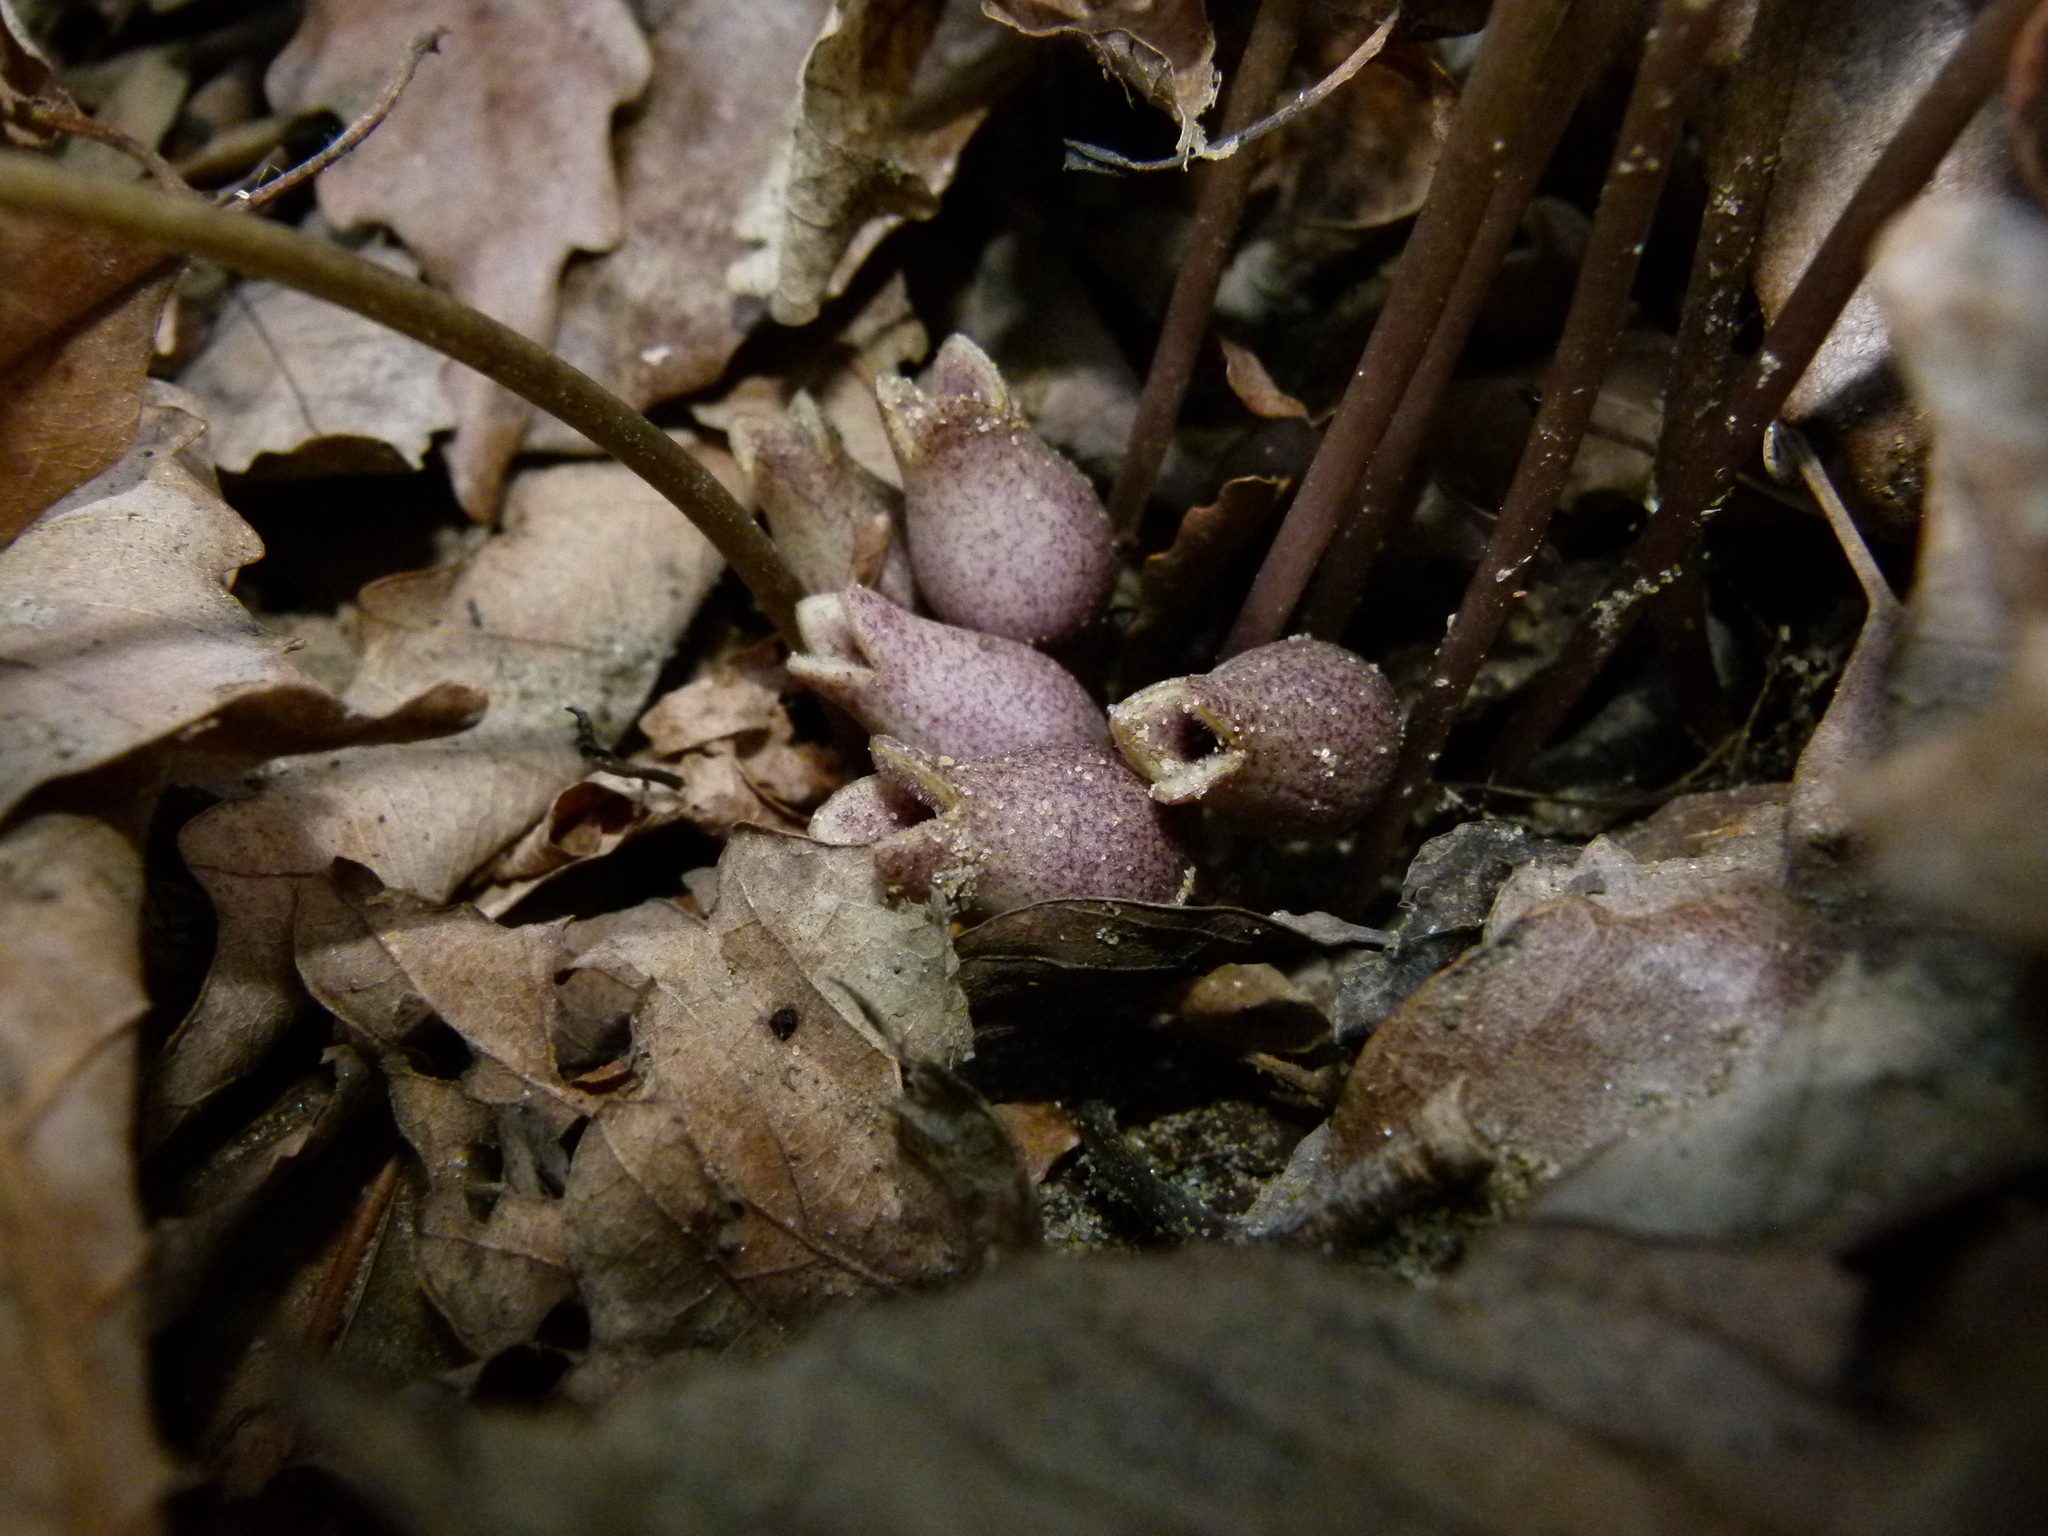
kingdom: Plantae
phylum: Tracheophyta
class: Magnoliopsida
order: Piperales
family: Aristolochiaceae
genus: Hexastylis
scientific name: Hexastylis arifolia
